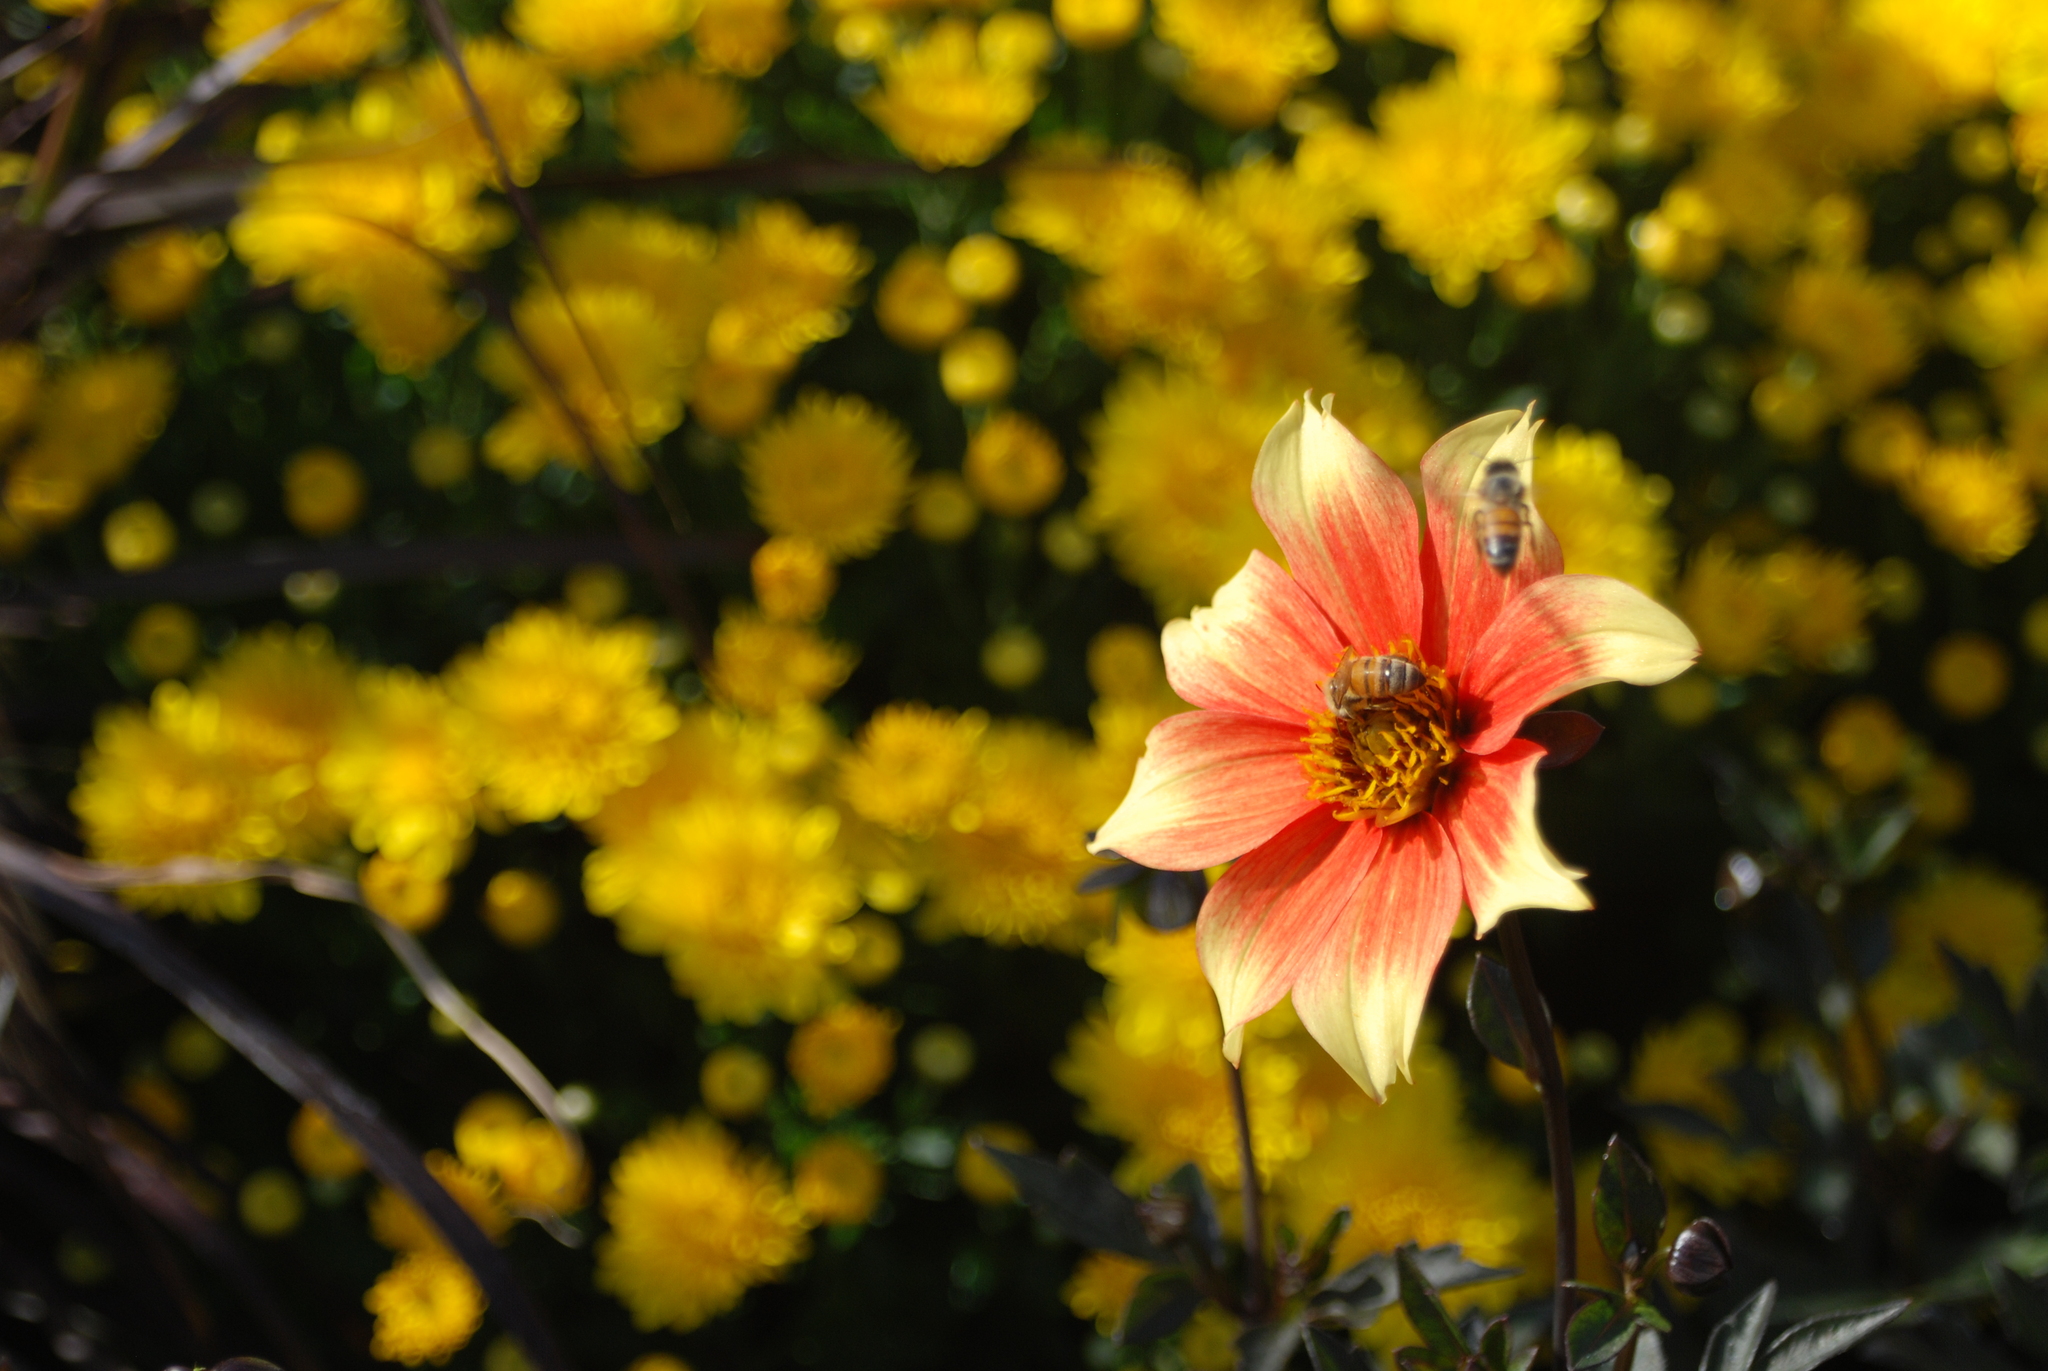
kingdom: Animalia
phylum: Arthropoda
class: Insecta
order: Hymenoptera
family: Apidae
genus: Apis
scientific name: Apis mellifera
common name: Honey bee
